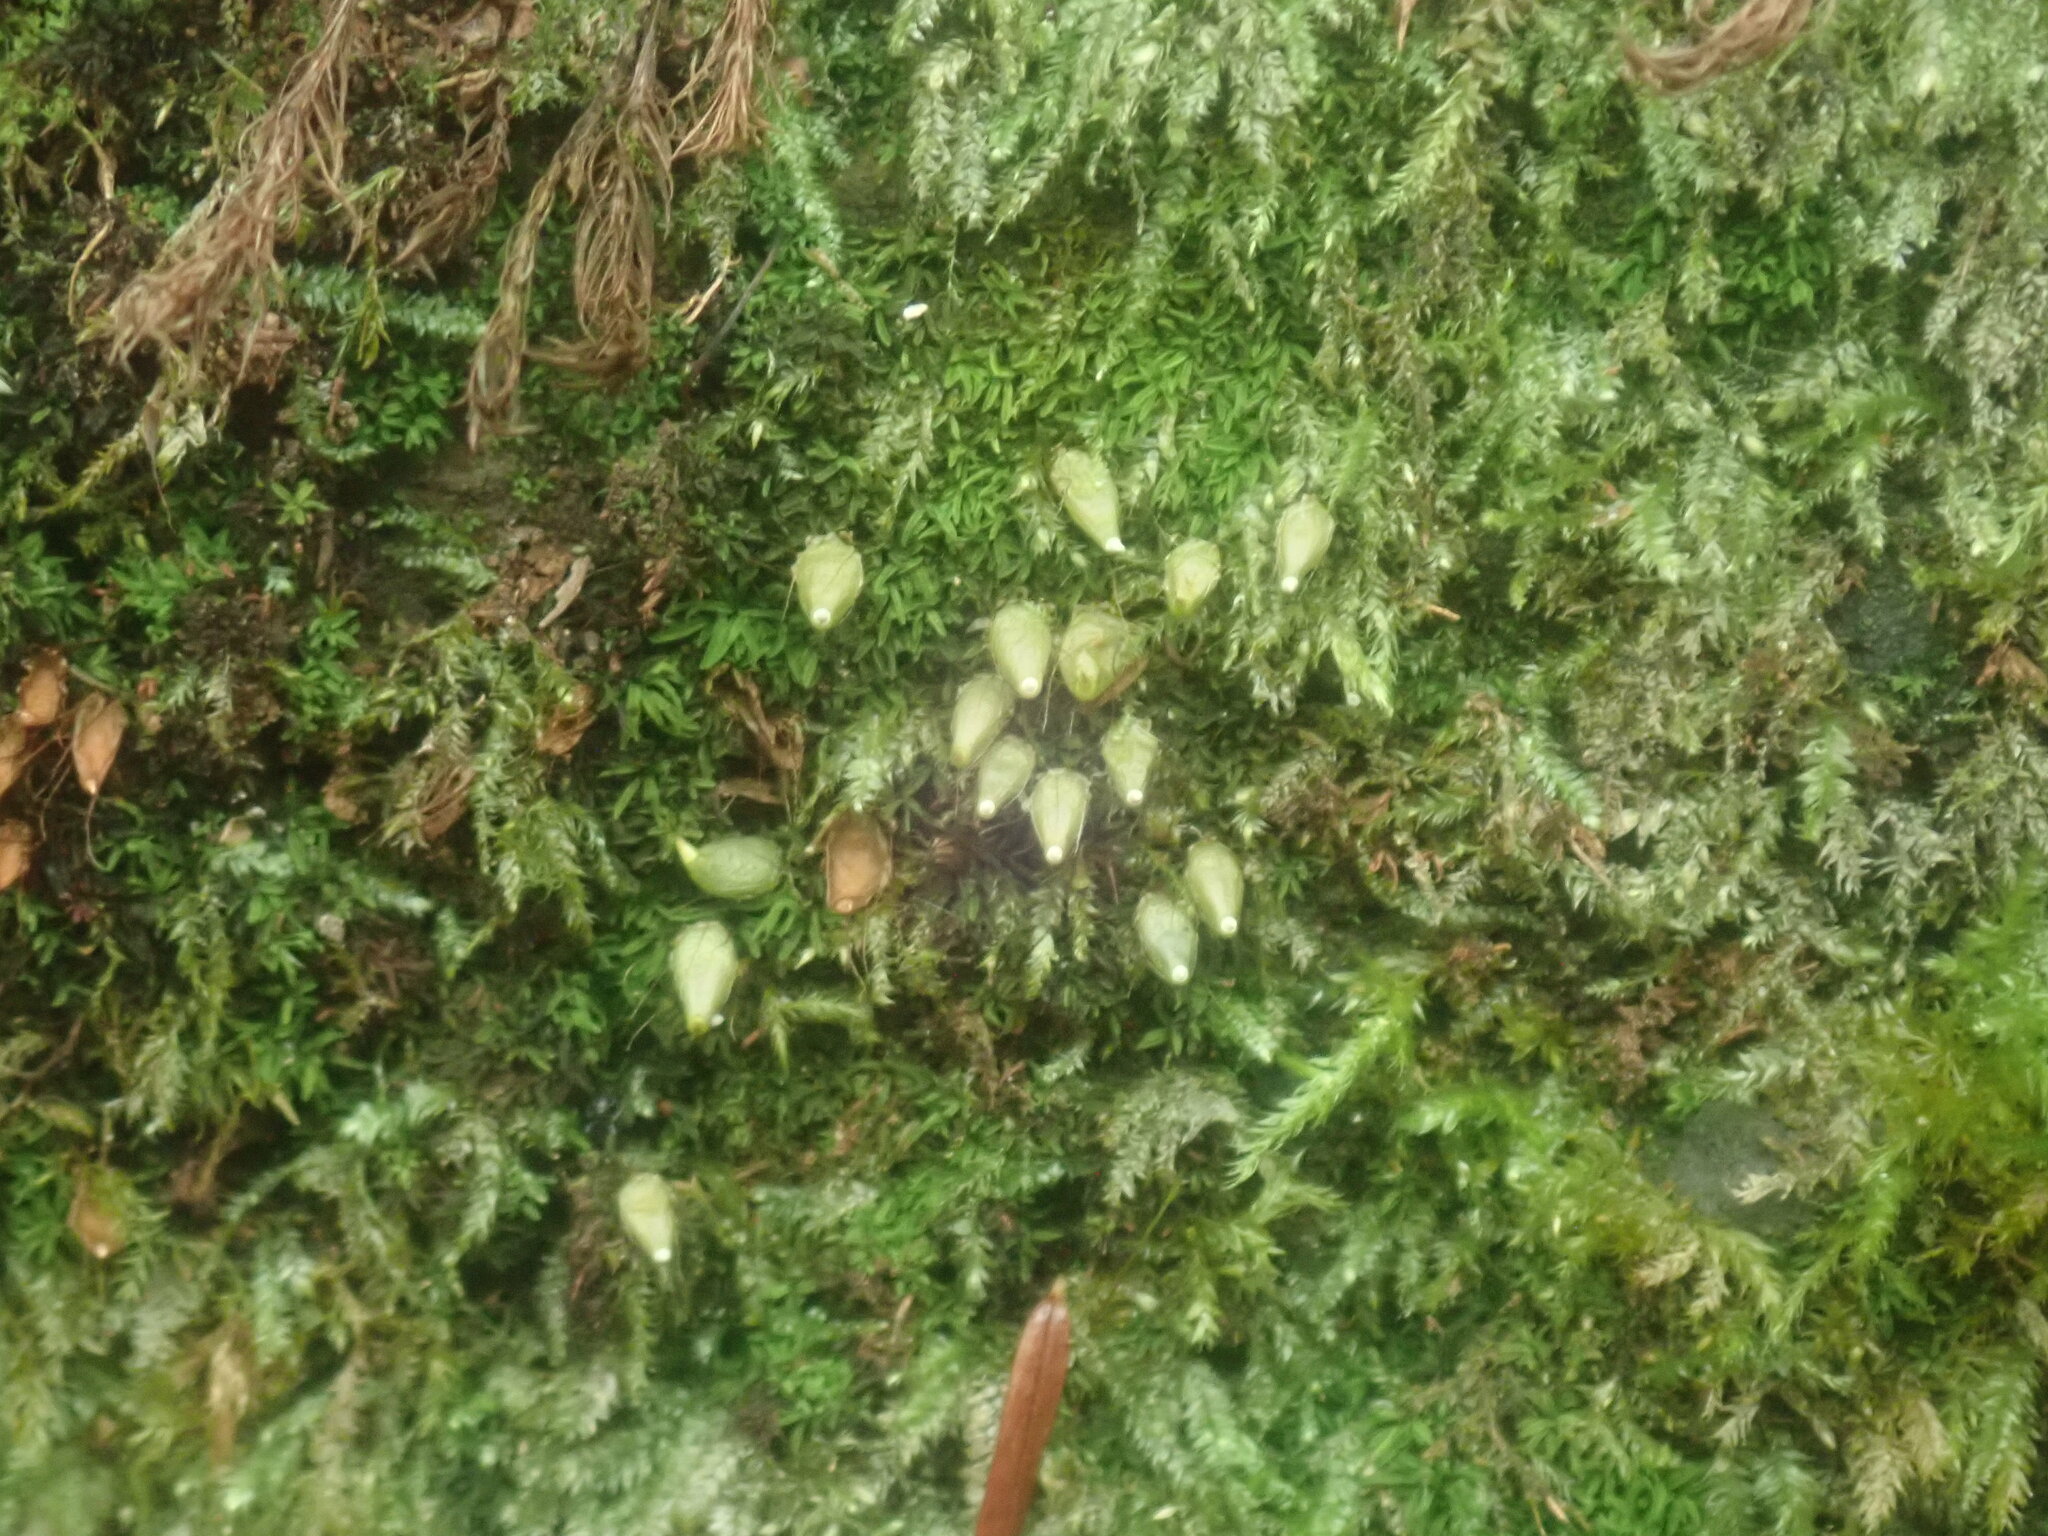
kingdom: Plantae
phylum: Bryophyta
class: Bryopsida
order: Diphysciales
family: Diphysciaceae
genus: Diphyscium
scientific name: Diphyscium foliosum
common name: Nut moss
